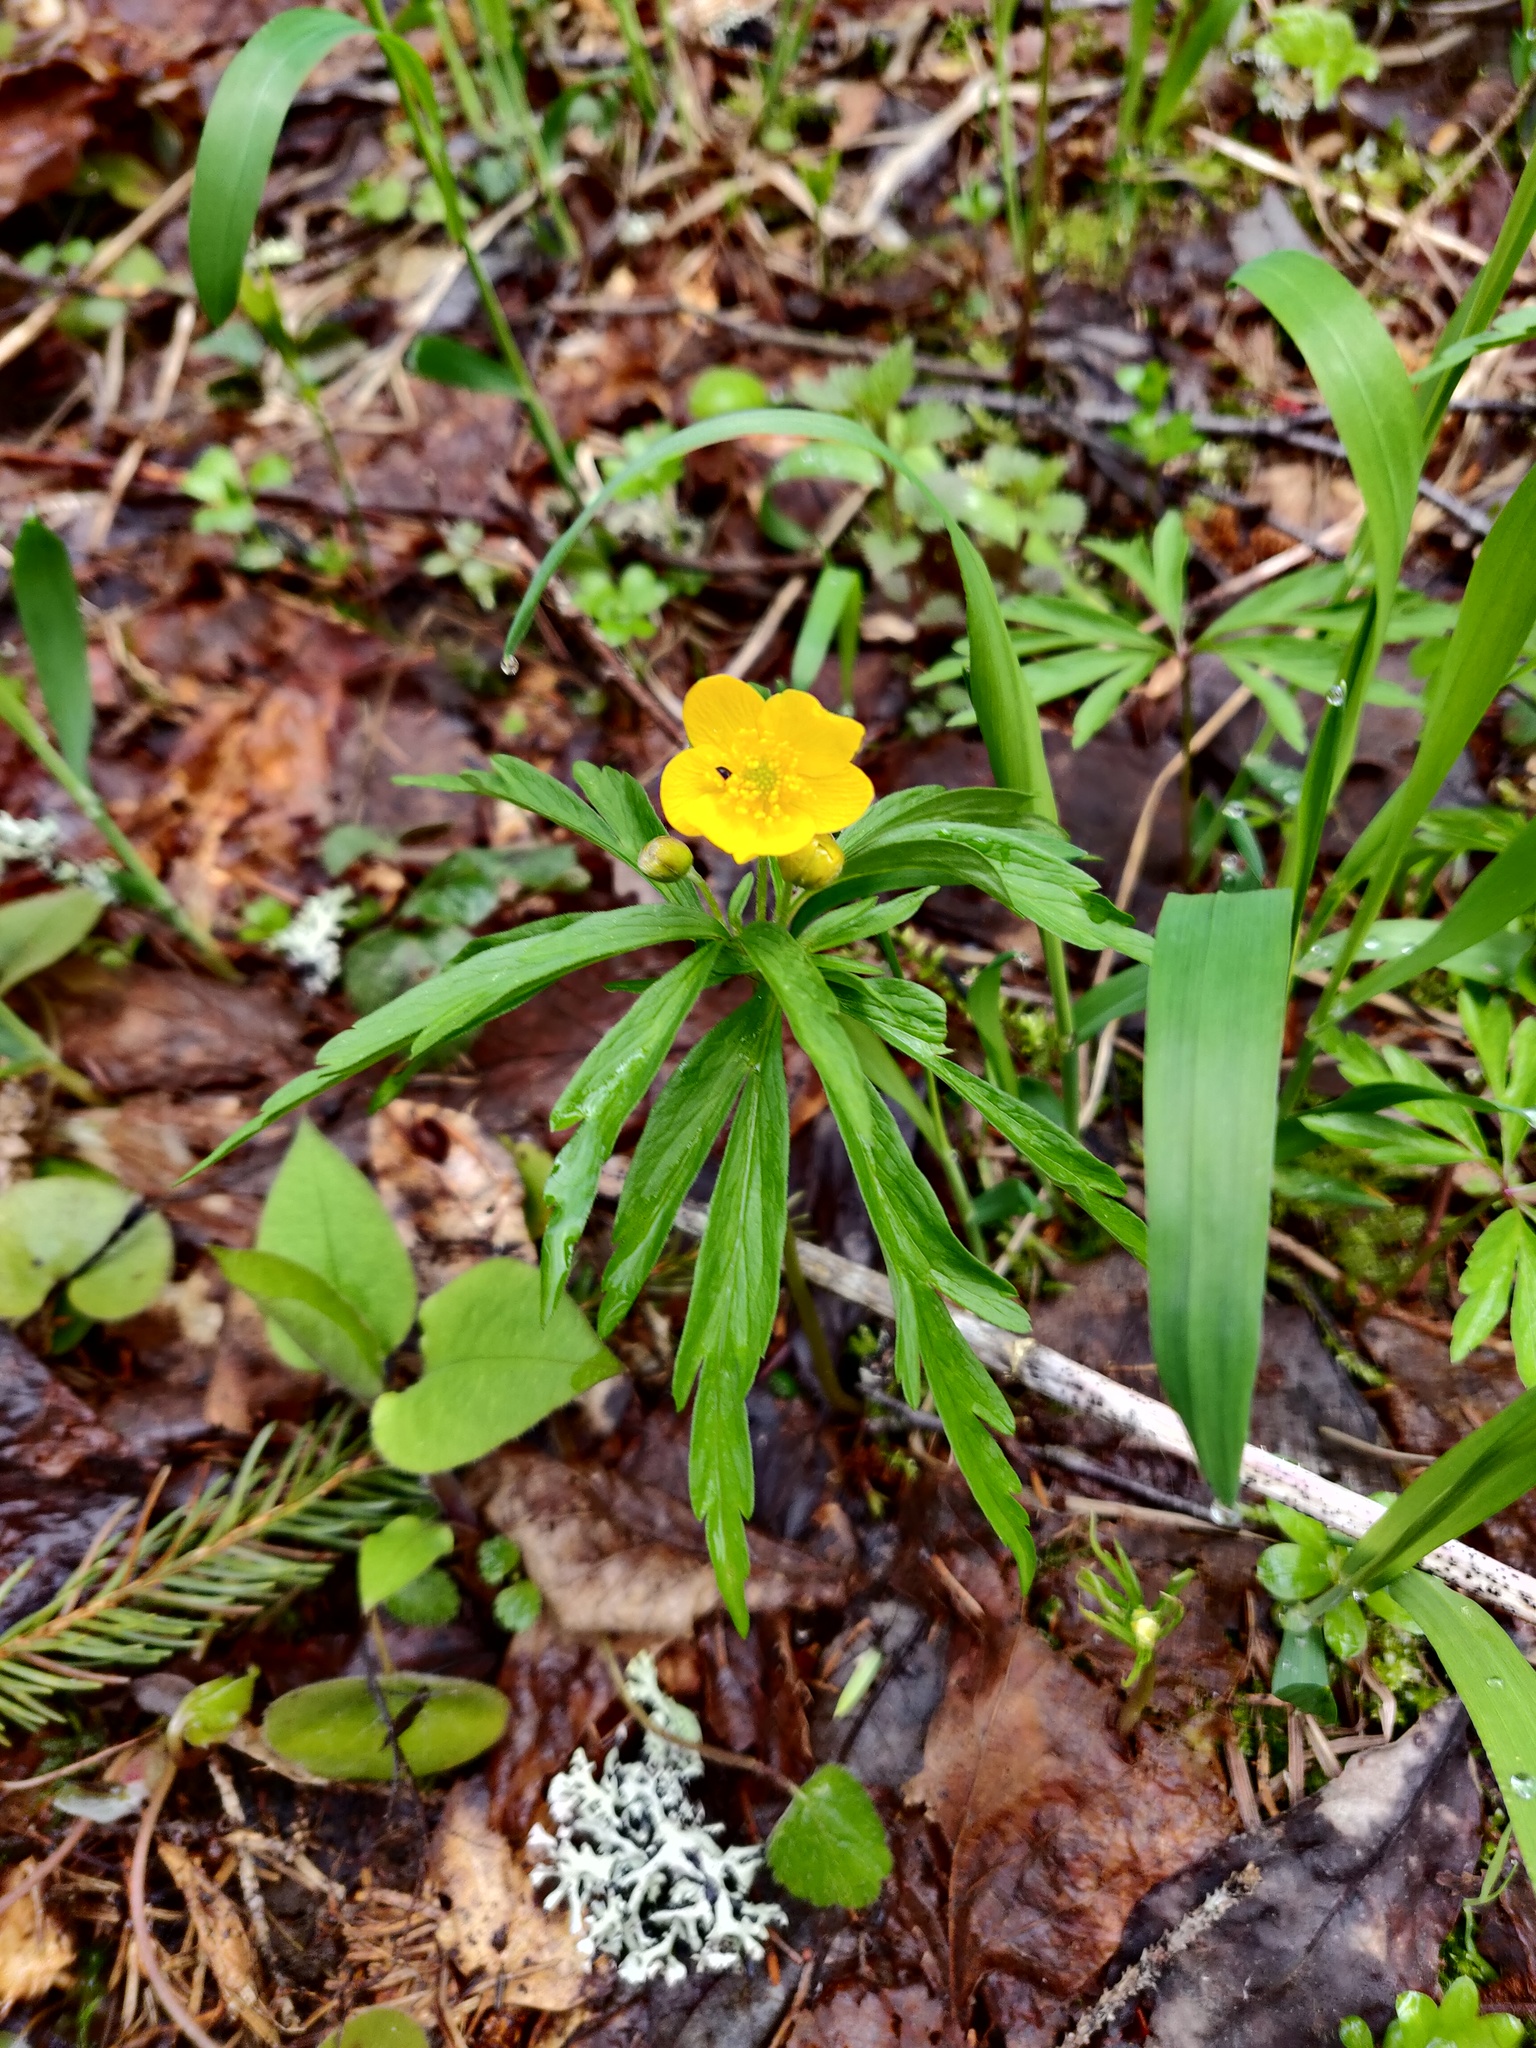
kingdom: Plantae
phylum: Tracheophyta
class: Magnoliopsida
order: Ranunculales
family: Ranunculaceae
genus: Anemone
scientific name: Anemone ranunculoides
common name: Yellow anemone
